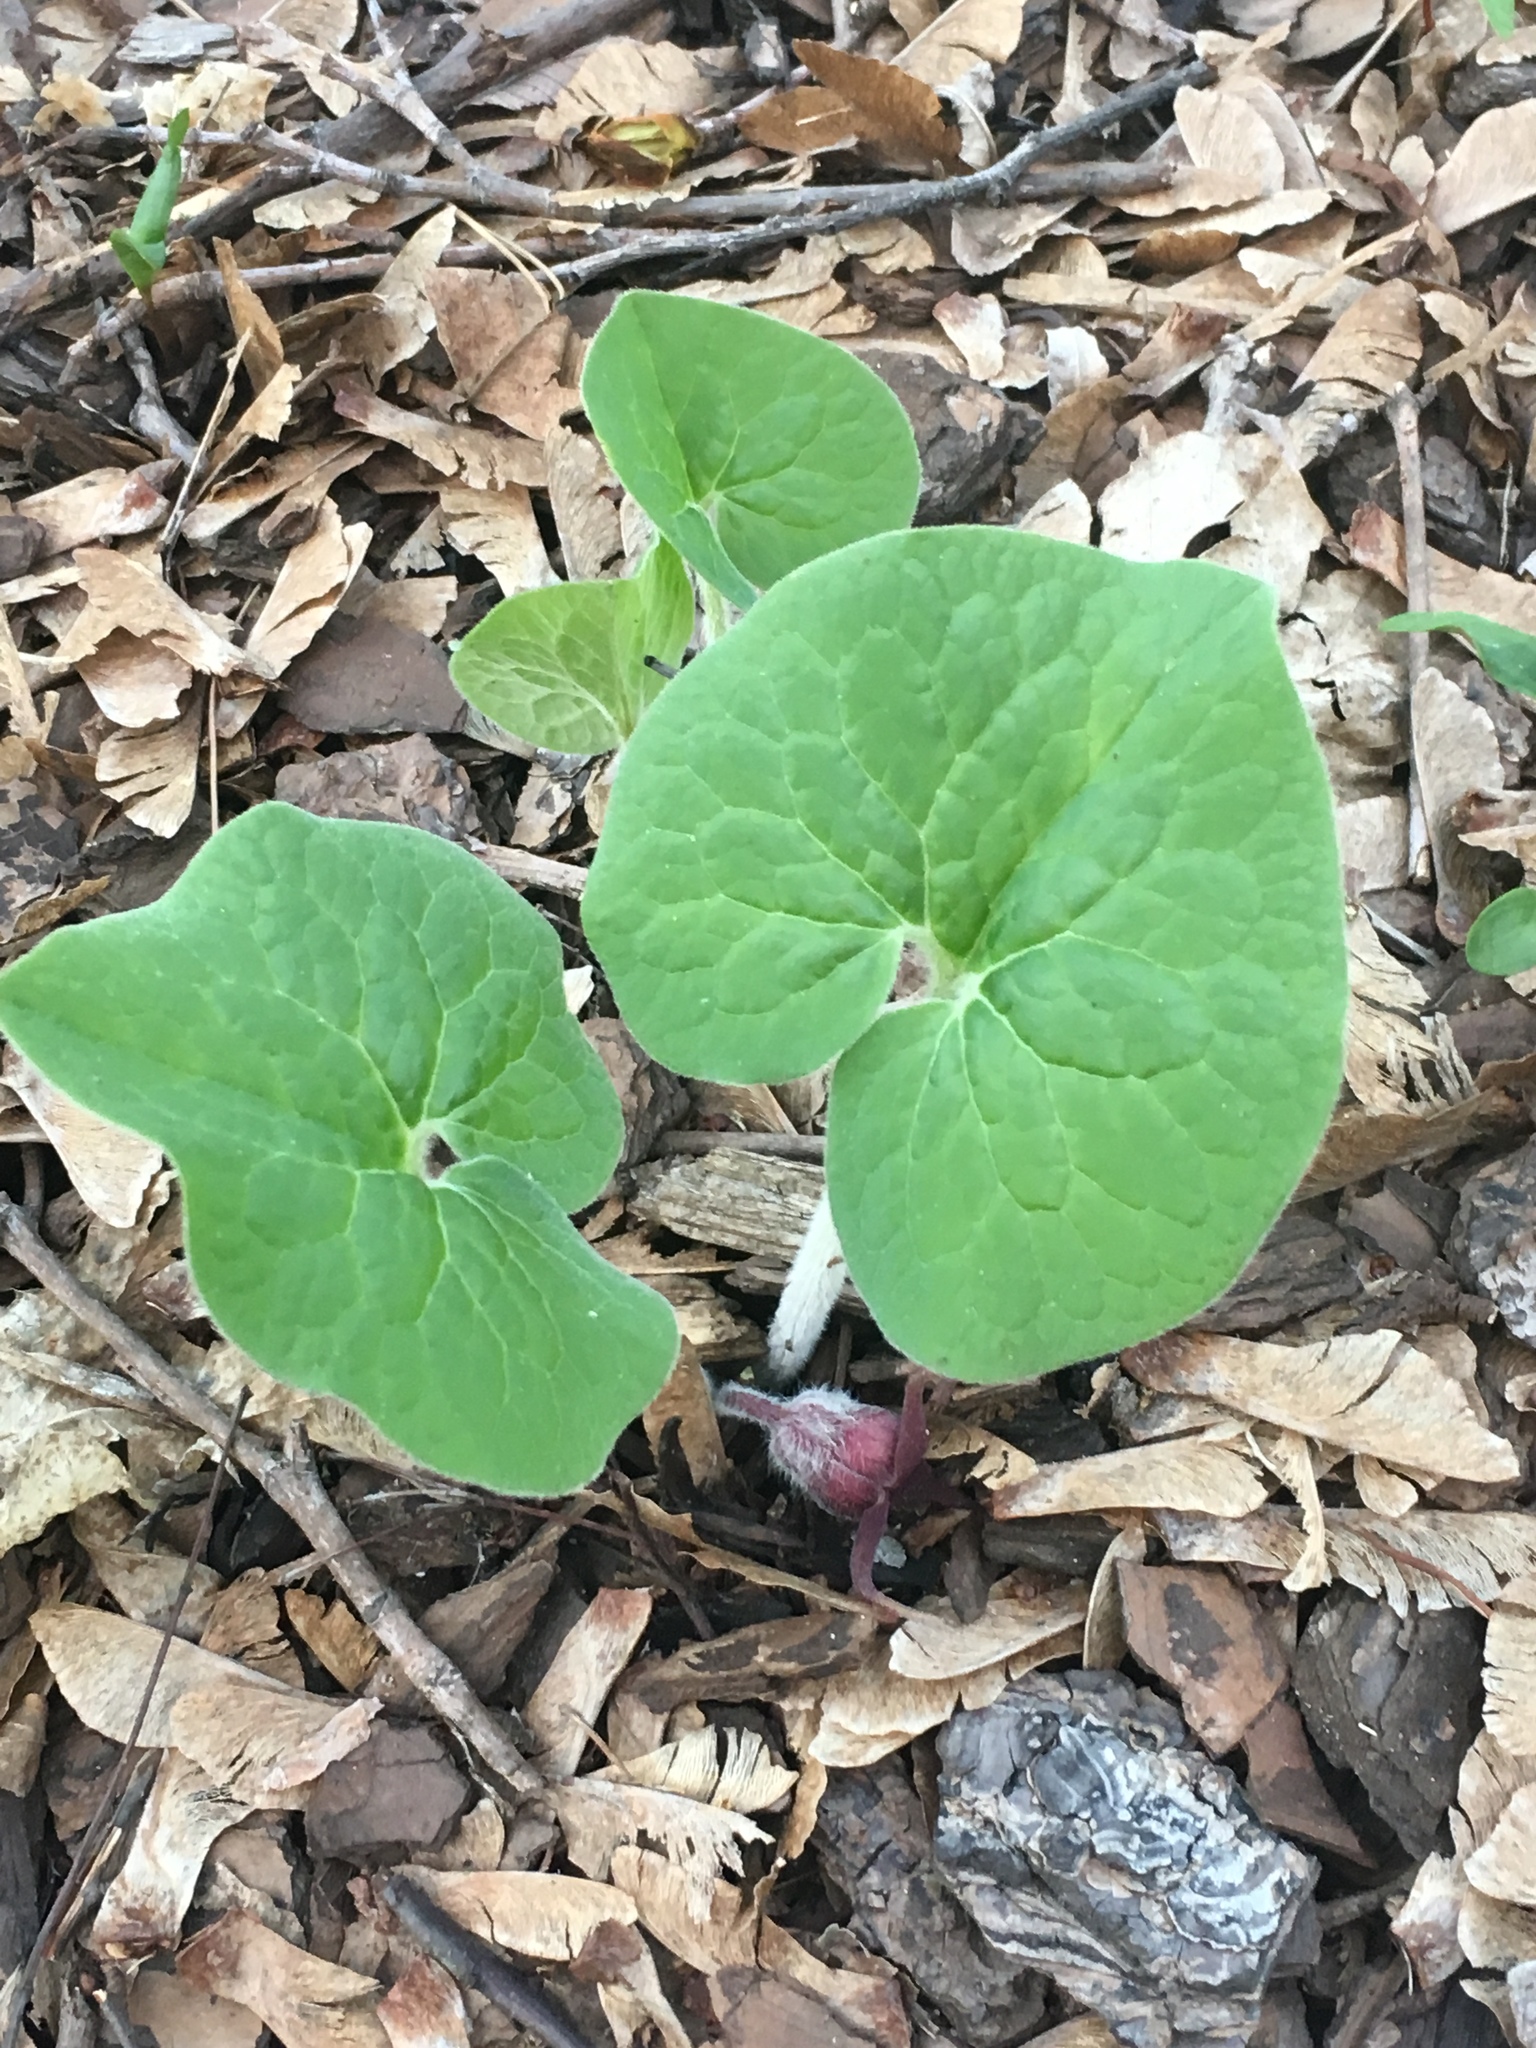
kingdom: Plantae
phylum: Tracheophyta
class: Magnoliopsida
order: Piperales
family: Aristolochiaceae
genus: Asarum
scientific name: Asarum canadense
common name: Wild ginger
